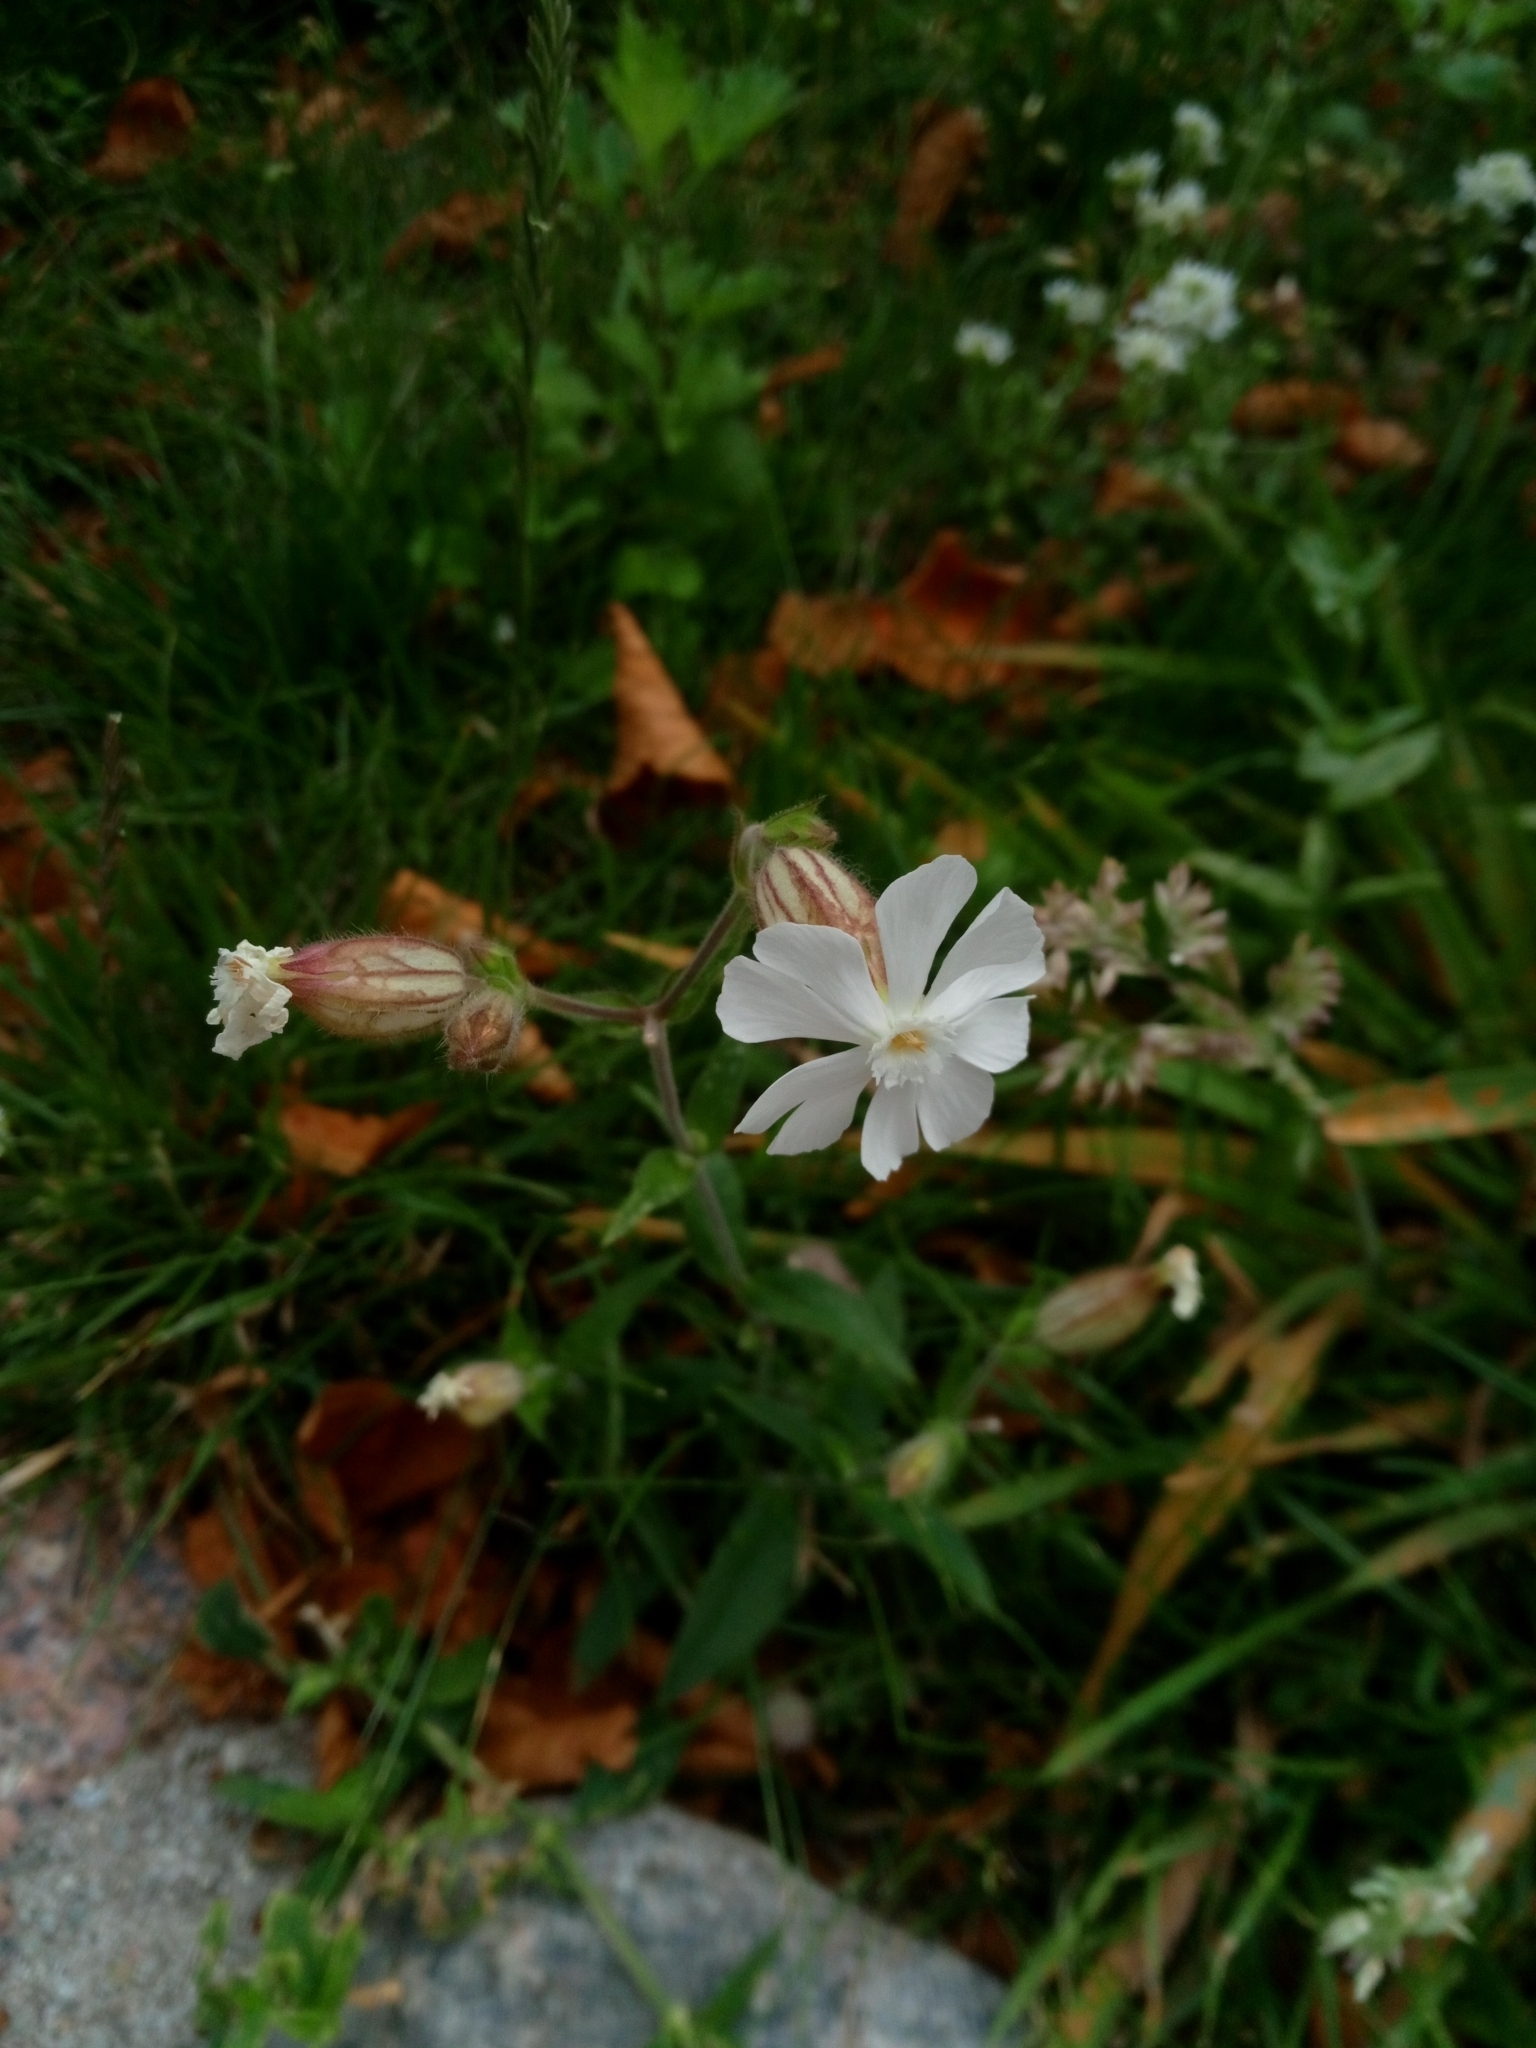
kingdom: Plantae
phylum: Tracheophyta
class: Magnoliopsida
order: Caryophyllales
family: Caryophyllaceae
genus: Silene
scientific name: Silene latifolia
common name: White campion
